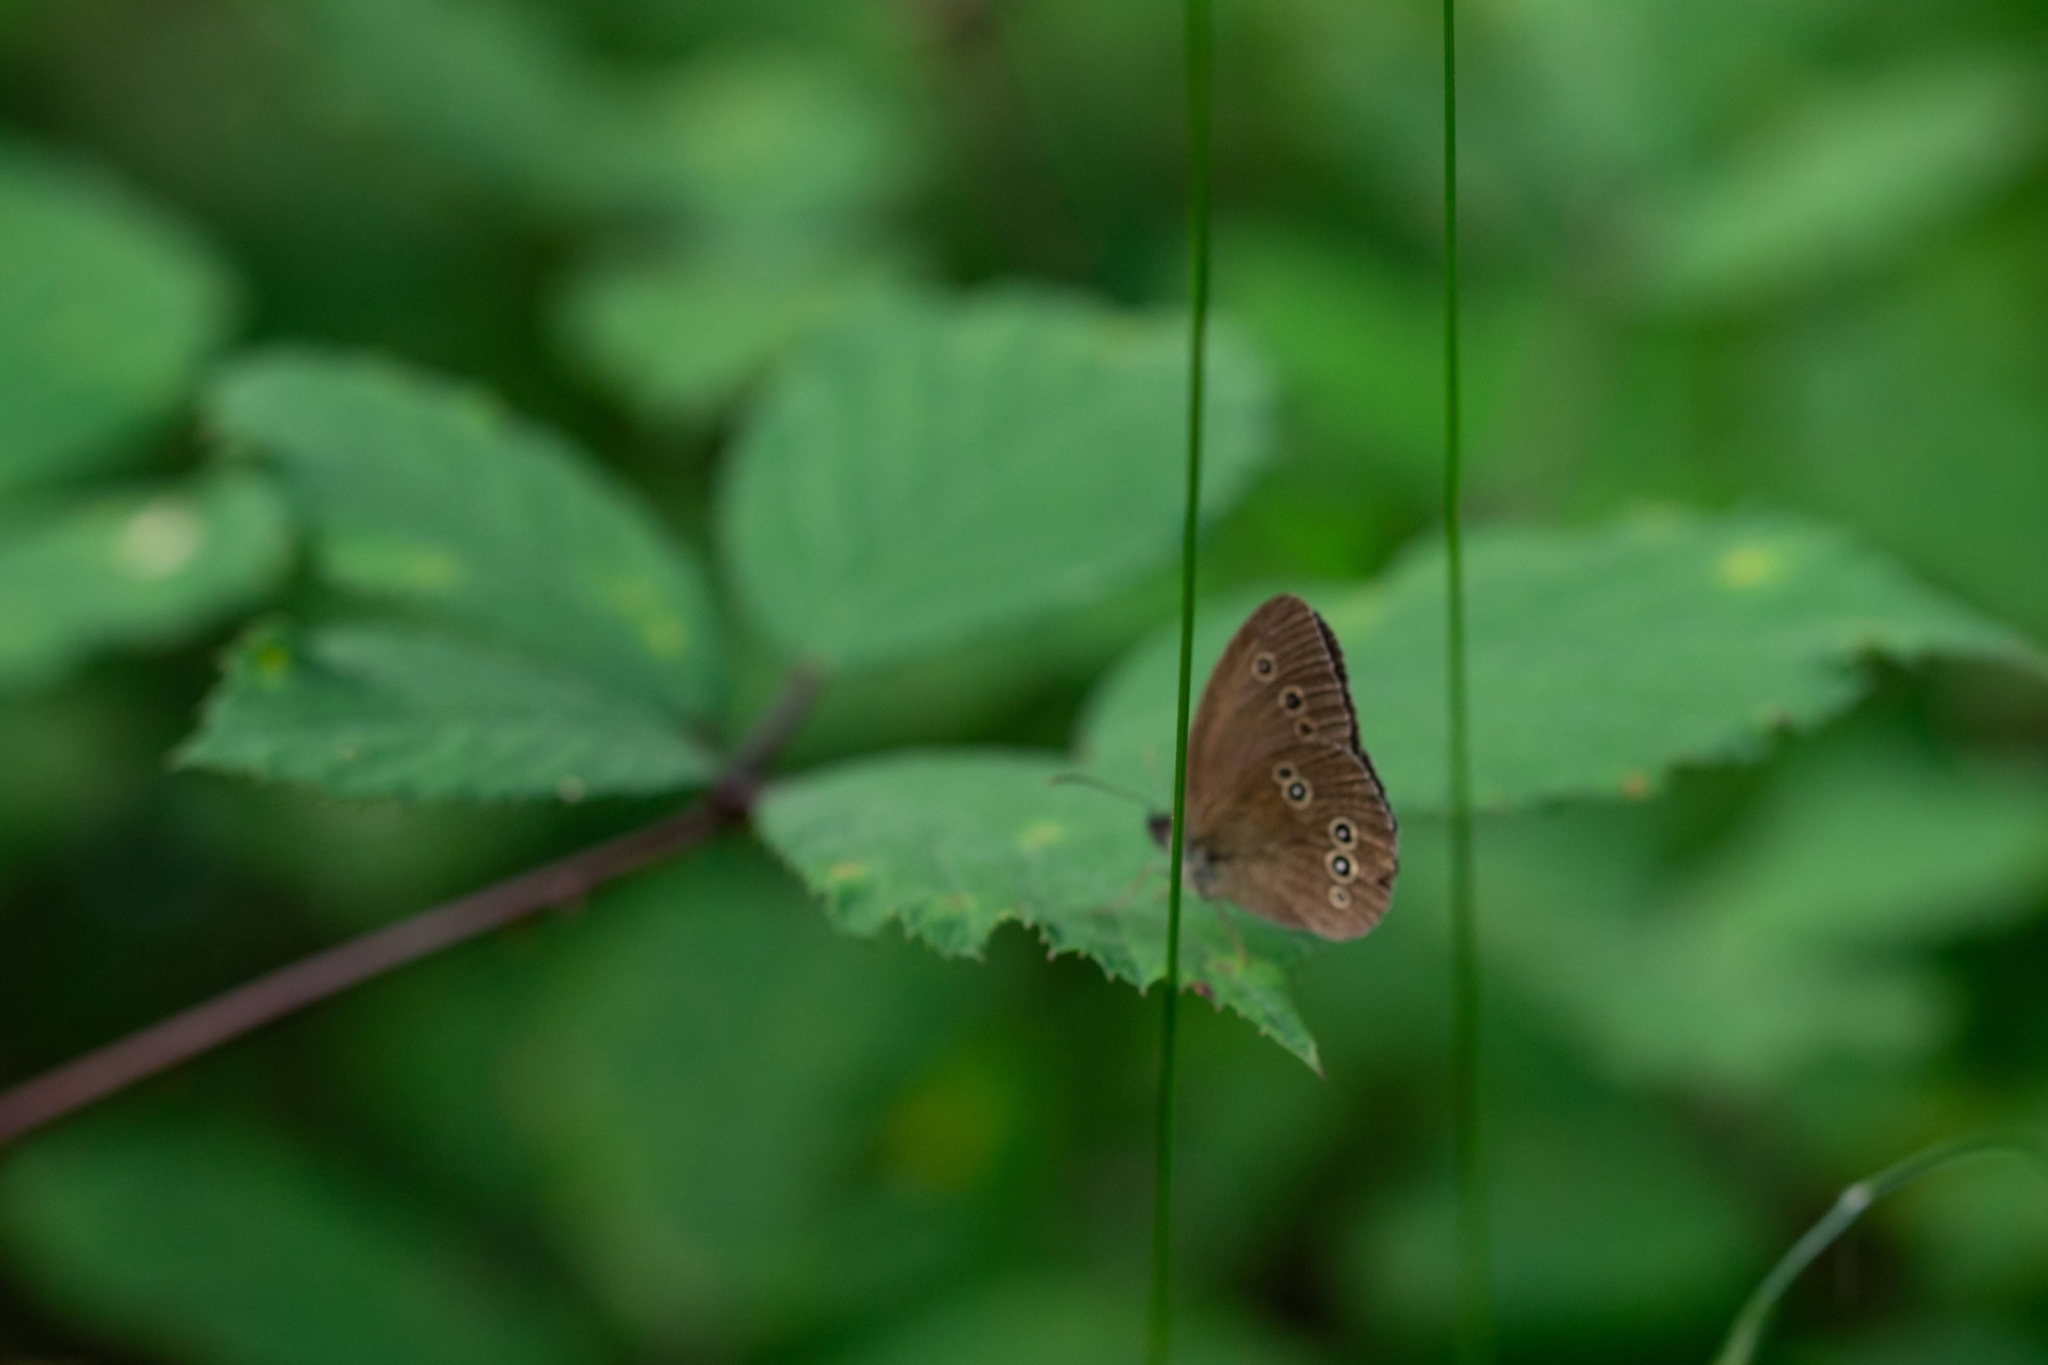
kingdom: Animalia
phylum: Arthropoda
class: Insecta
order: Lepidoptera
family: Nymphalidae
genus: Aphantopus
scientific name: Aphantopus hyperantus
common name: Ringlet
